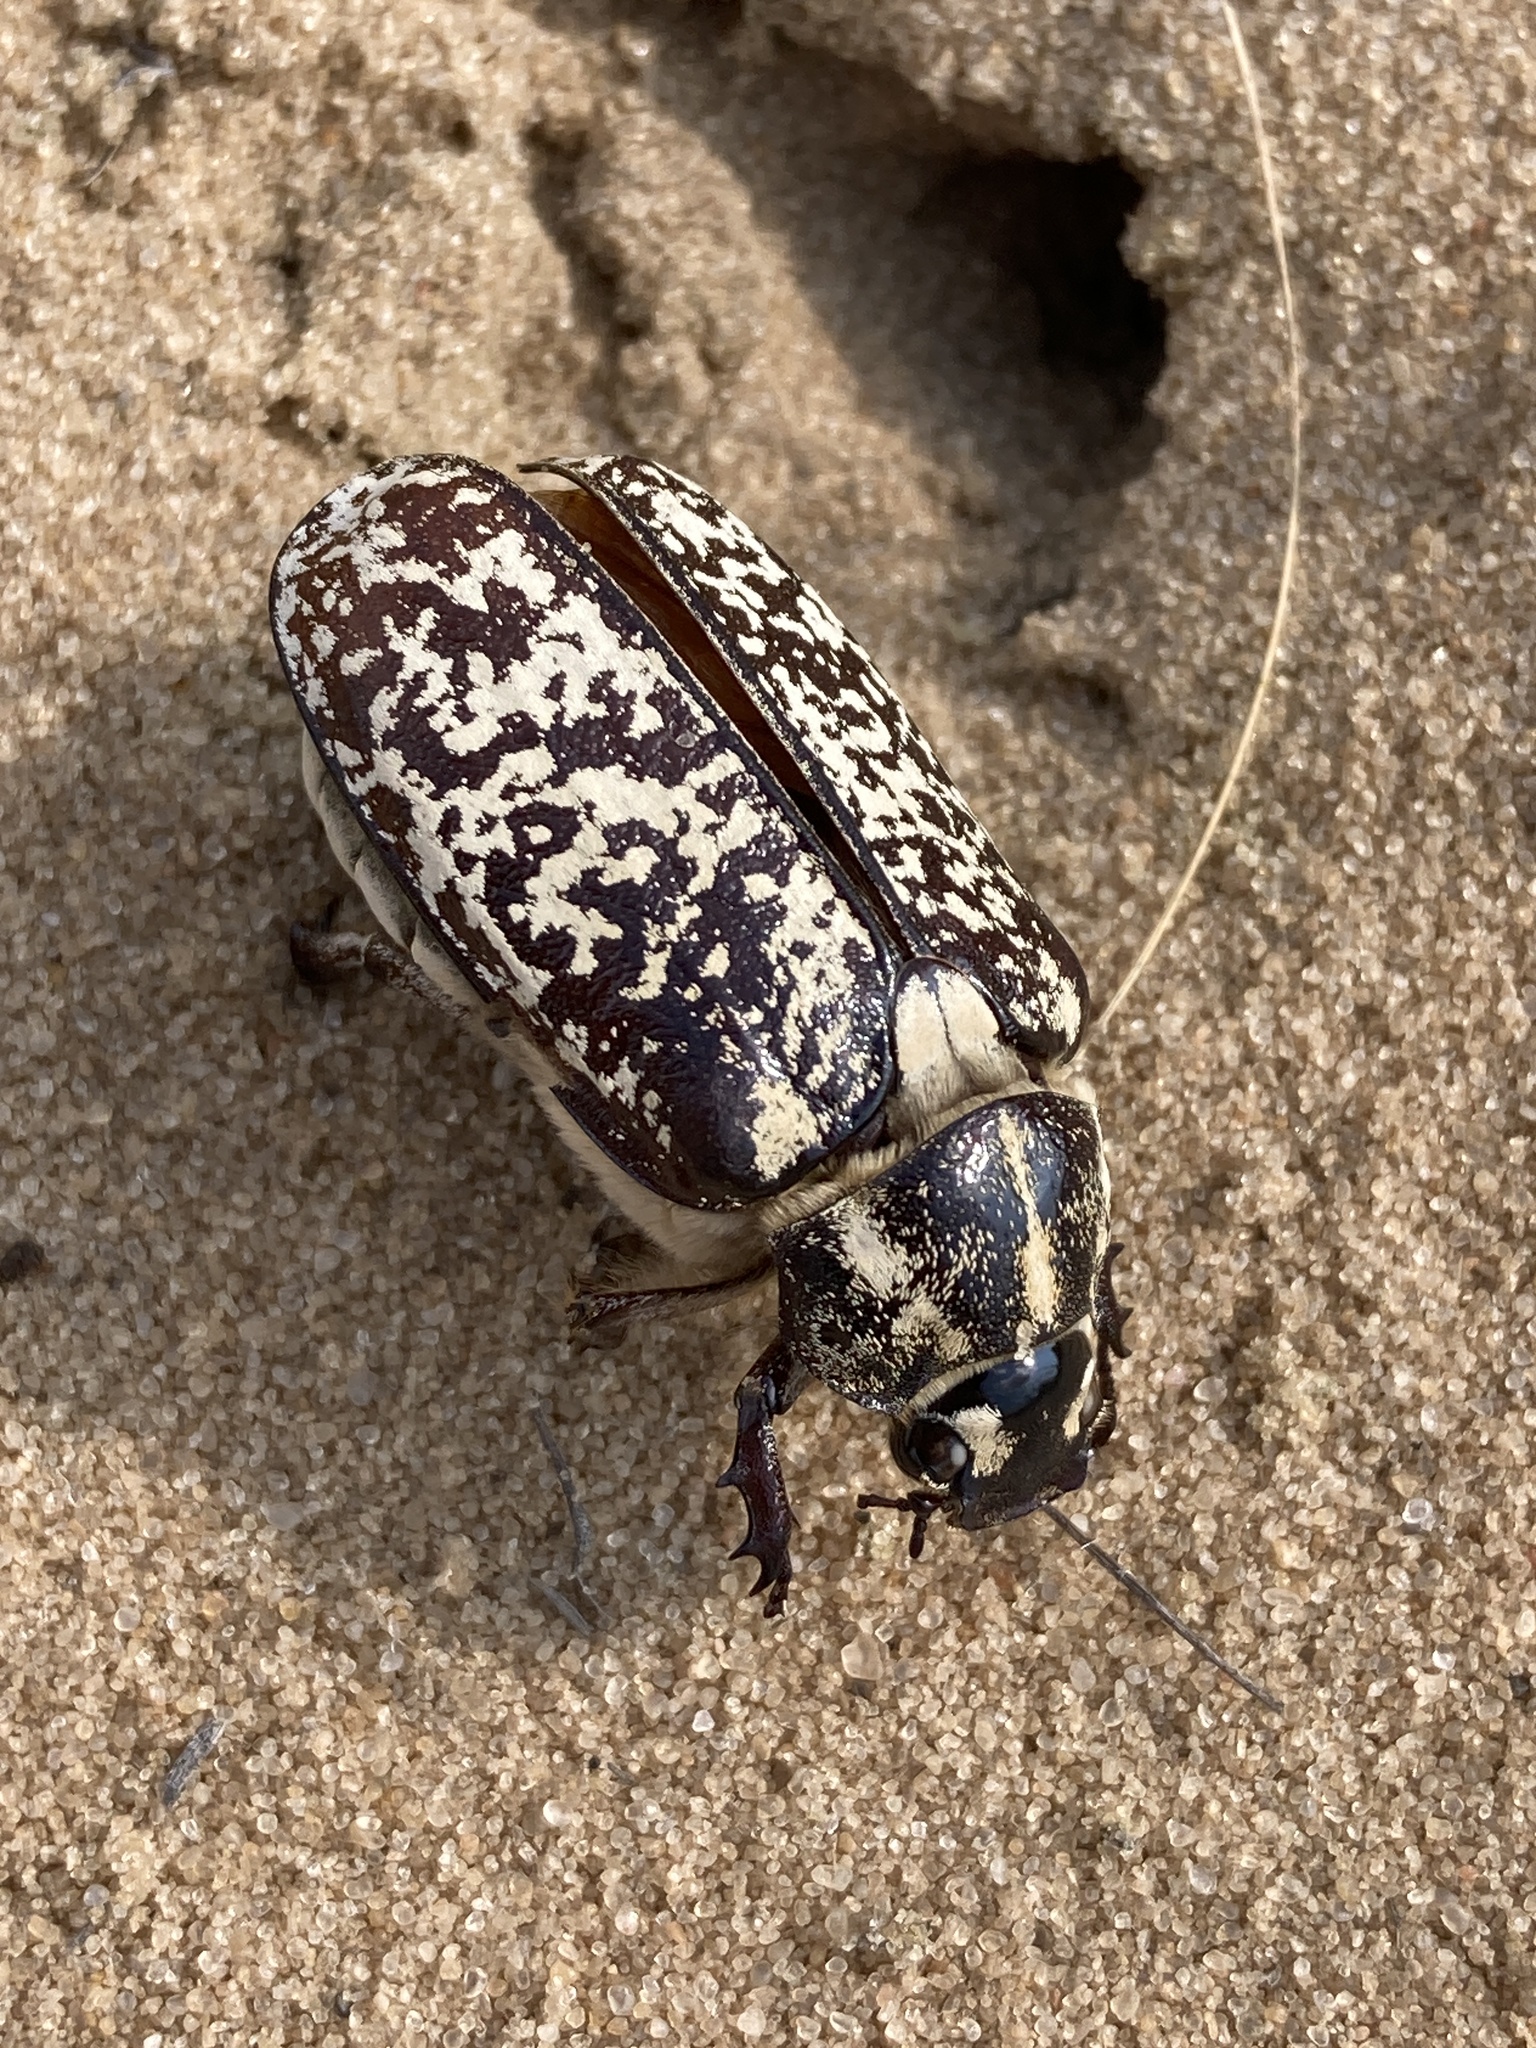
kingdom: Animalia
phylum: Arthropoda
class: Insecta
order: Coleoptera
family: Scarabaeidae
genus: Polyphylla
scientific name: Polyphylla fullo
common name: Pine chafer
